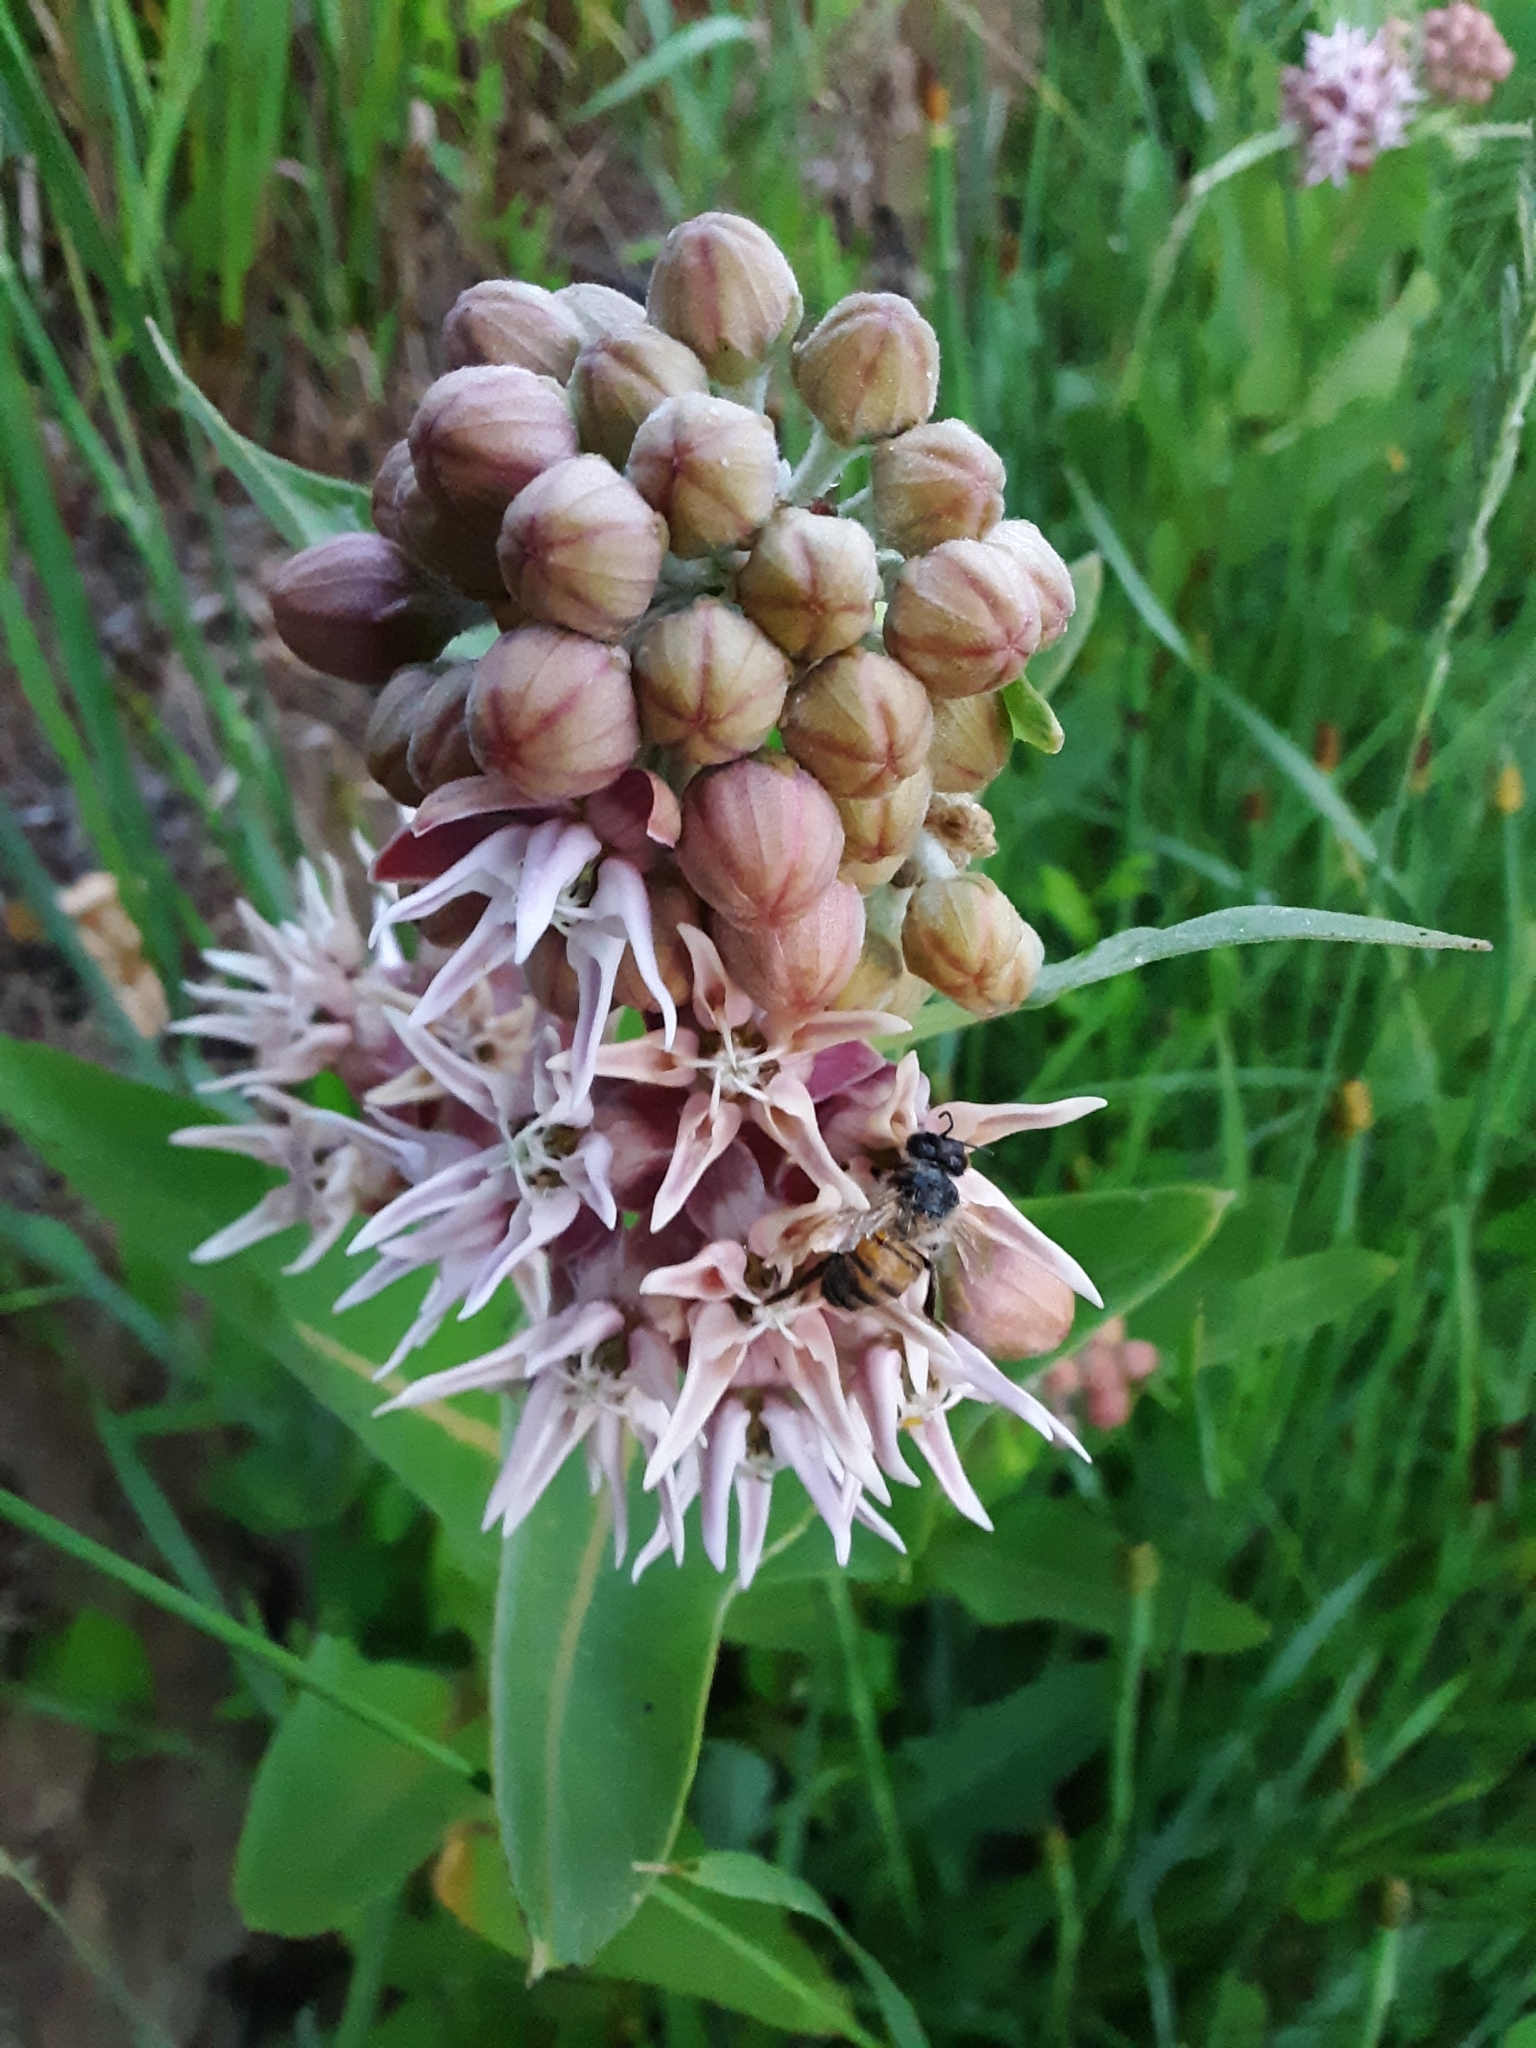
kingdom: Plantae
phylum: Tracheophyta
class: Magnoliopsida
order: Gentianales
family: Apocynaceae
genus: Asclepias
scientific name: Asclepias speciosa
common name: Showy milkweed
